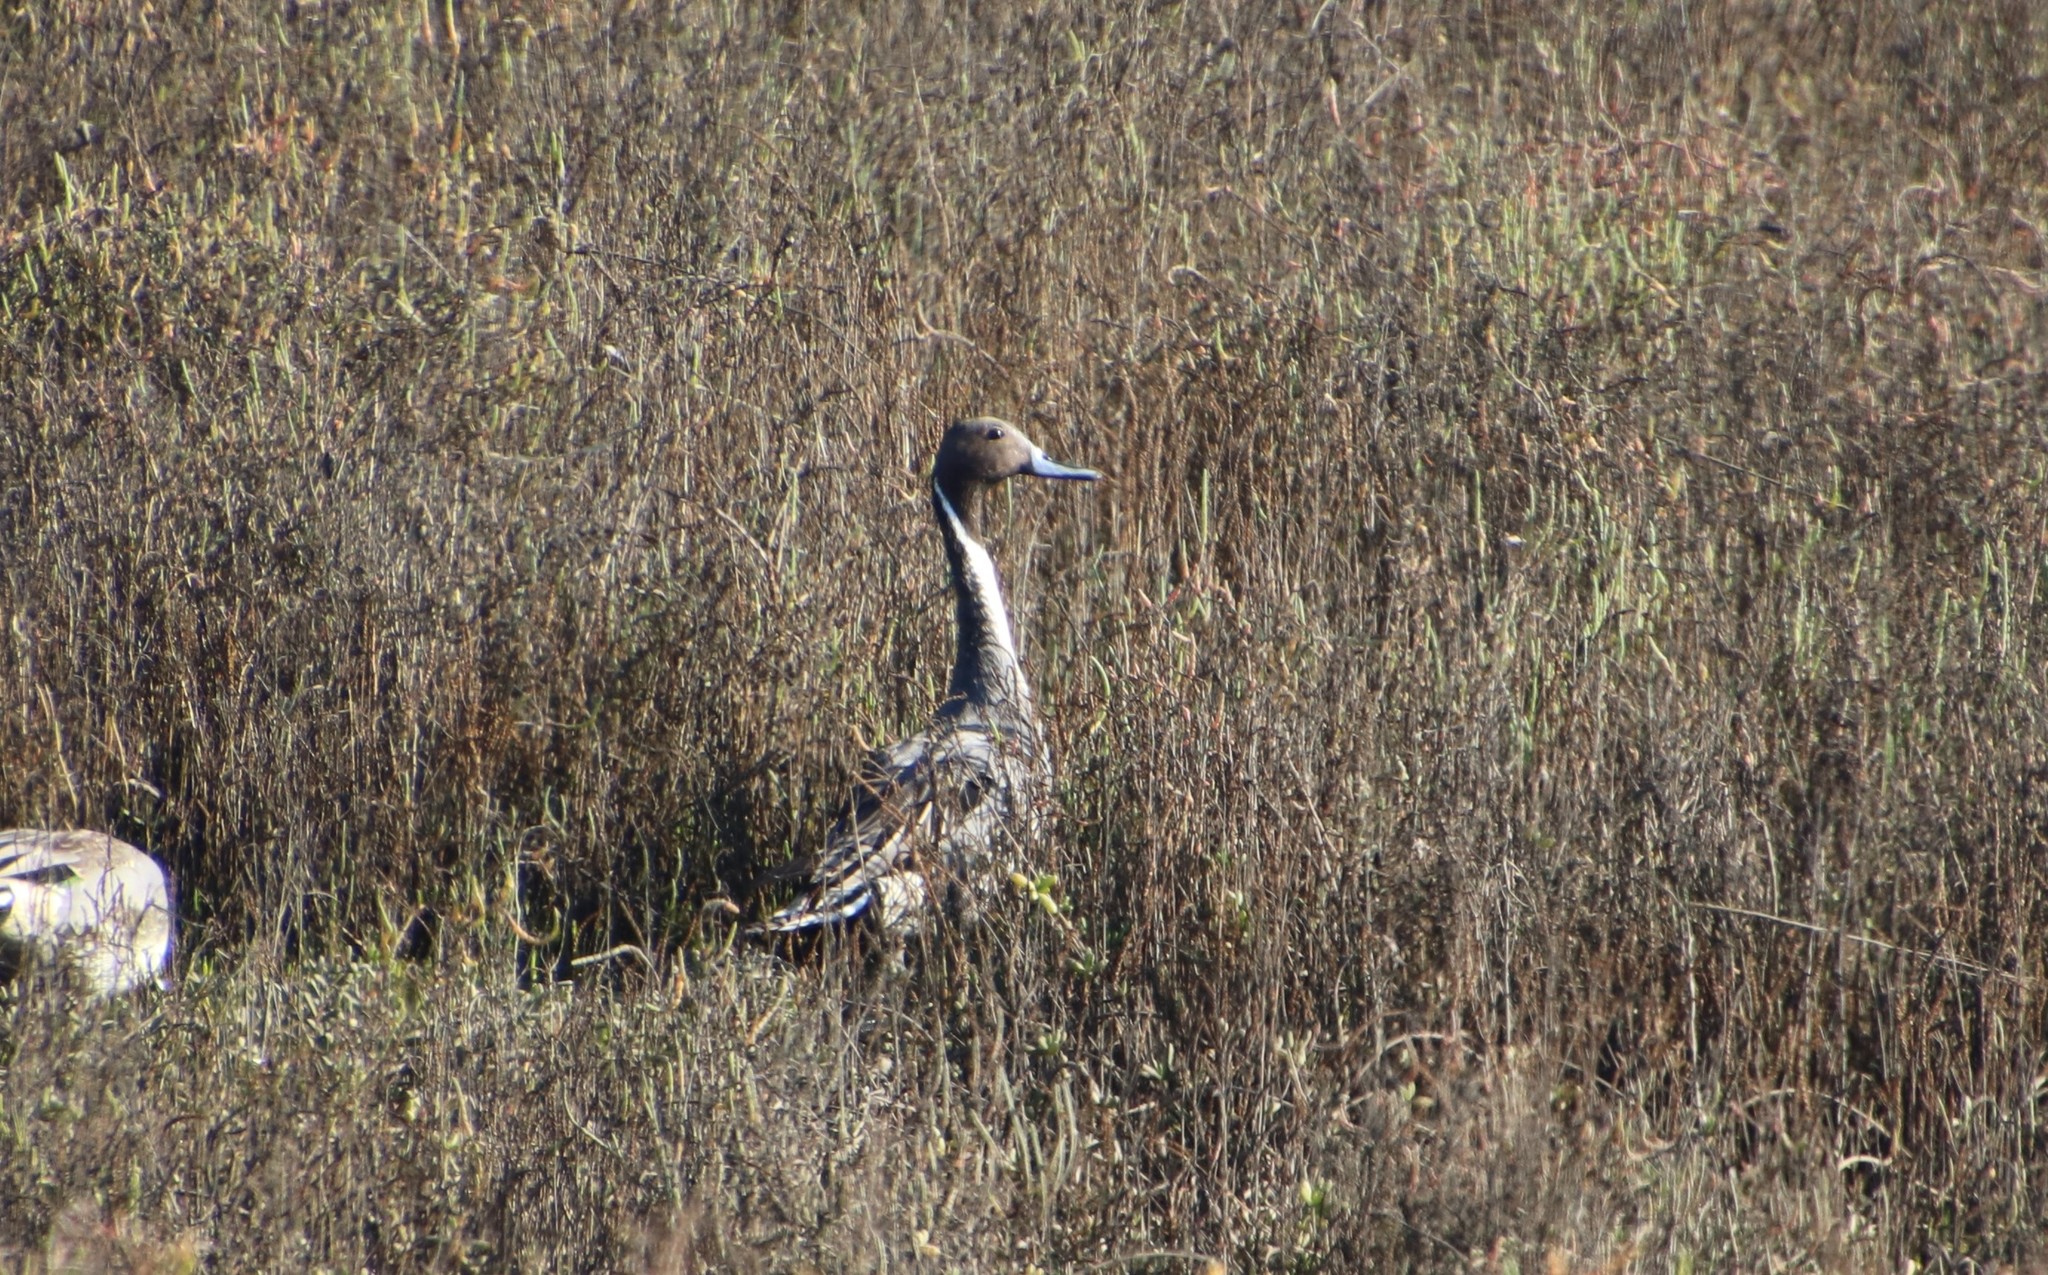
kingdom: Animalia
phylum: Chordata
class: Aves
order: Anseriformes
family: Anatidae
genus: Anas
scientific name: Anas acuta
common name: Northern pintail
